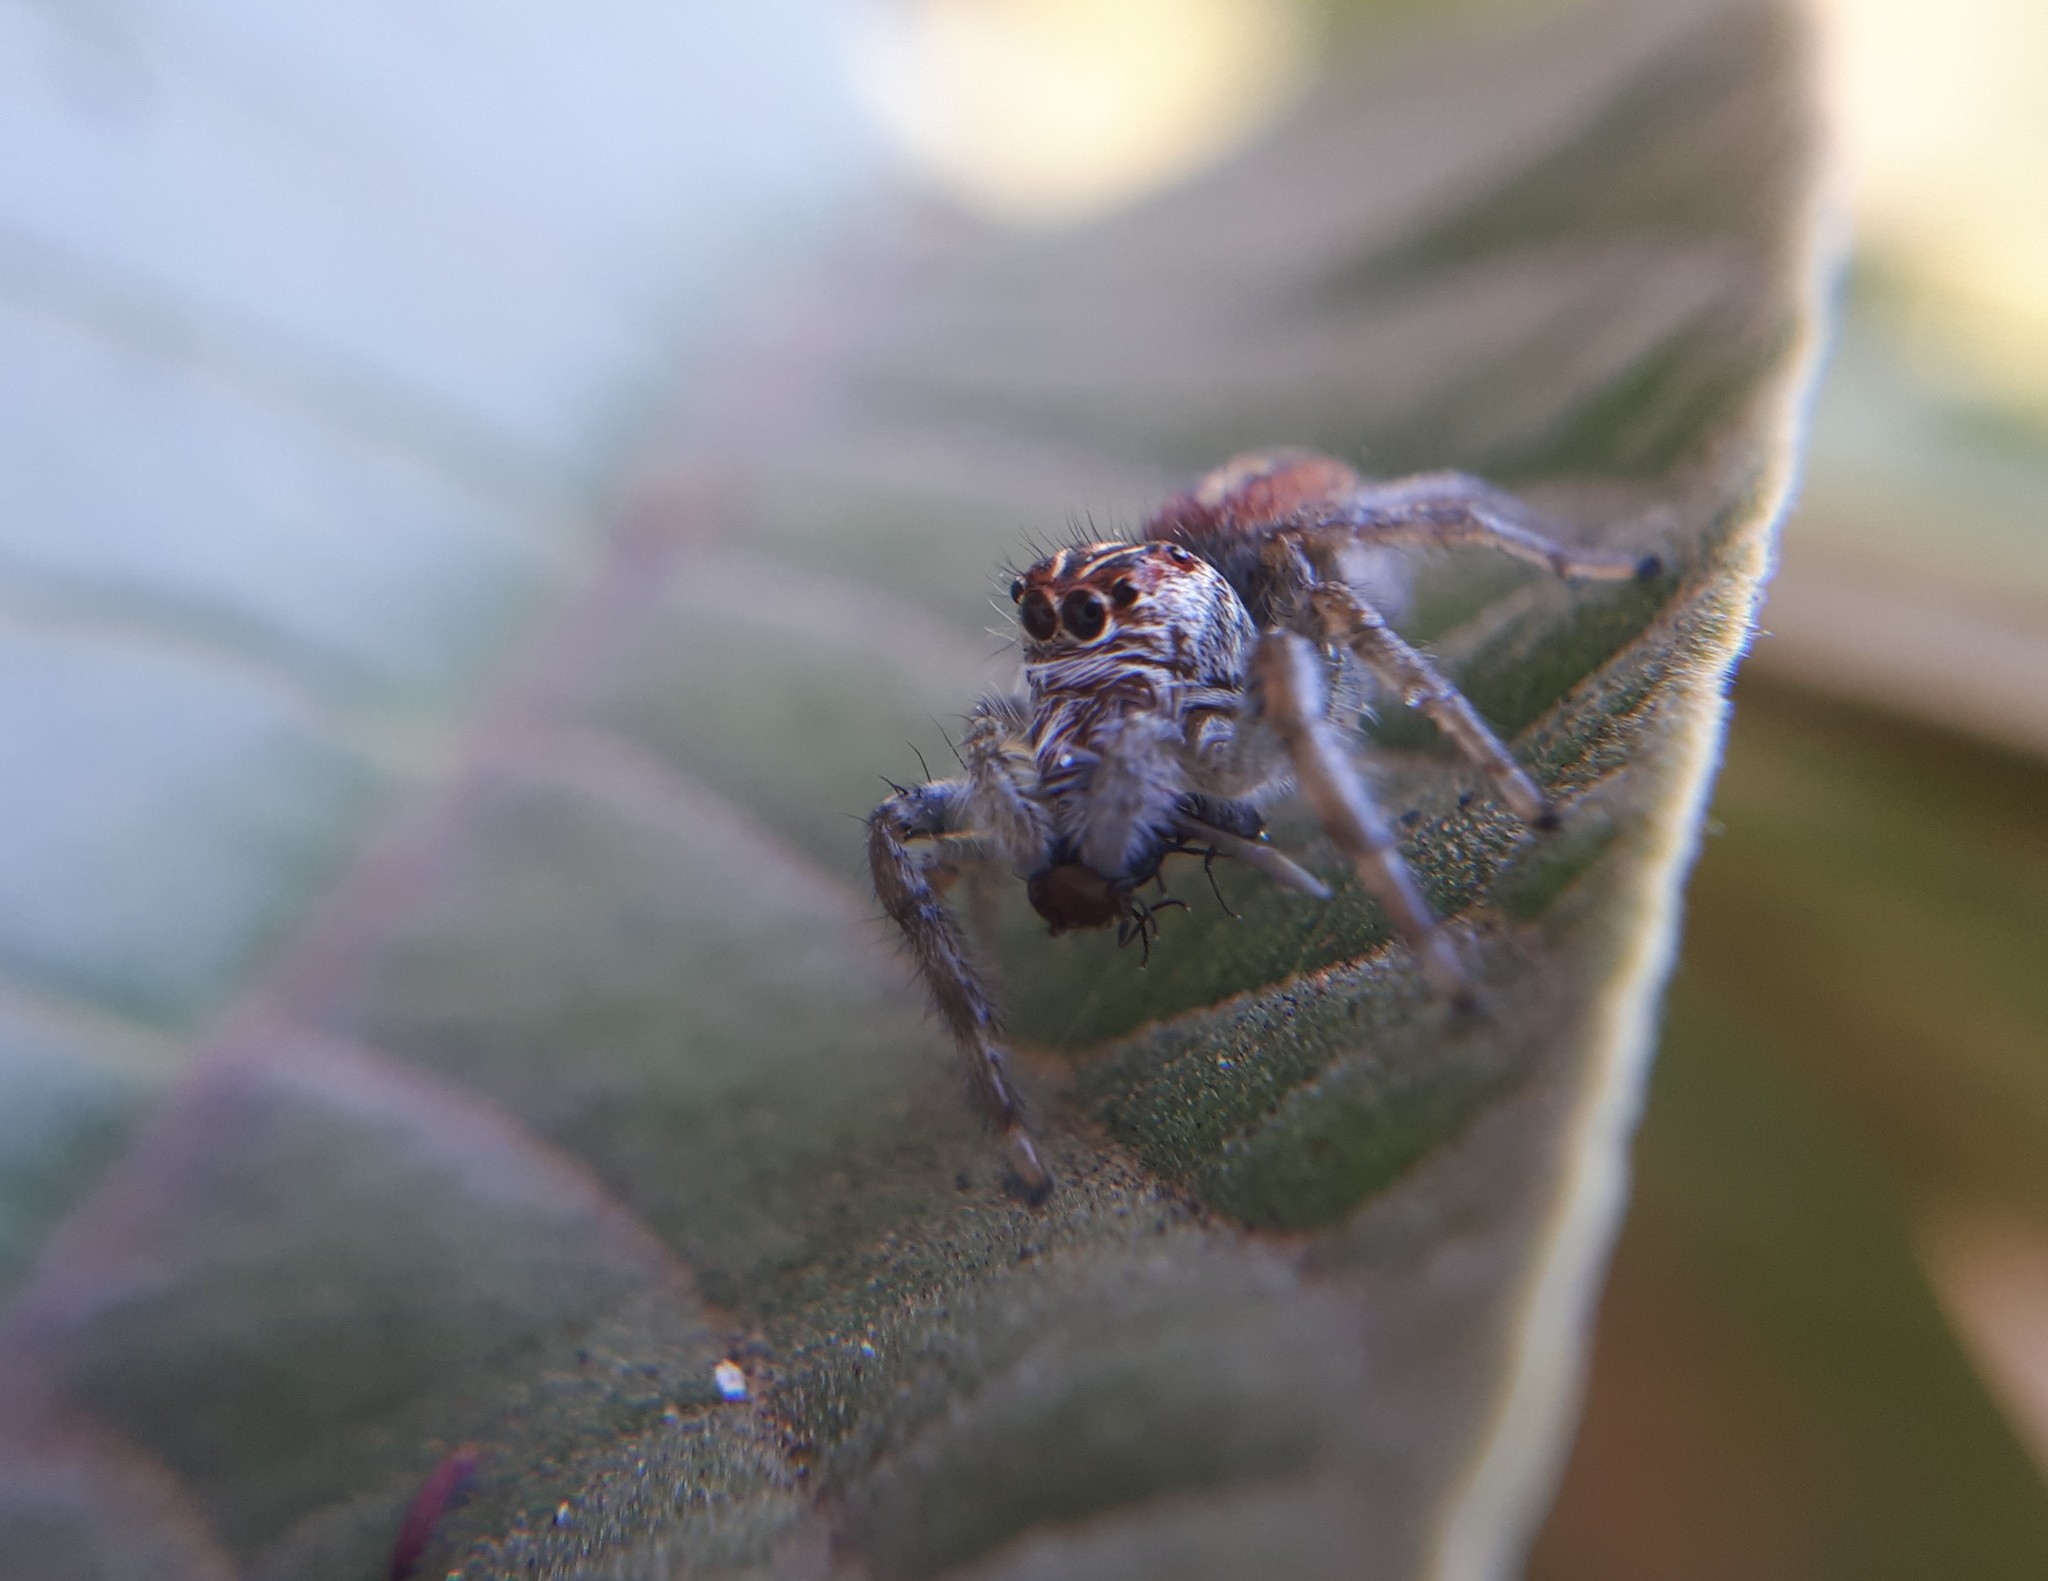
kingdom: Animalia
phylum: Arthropoda
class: Arachnida
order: Araneae
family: Salticidae
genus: Frigga
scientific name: Frigga
